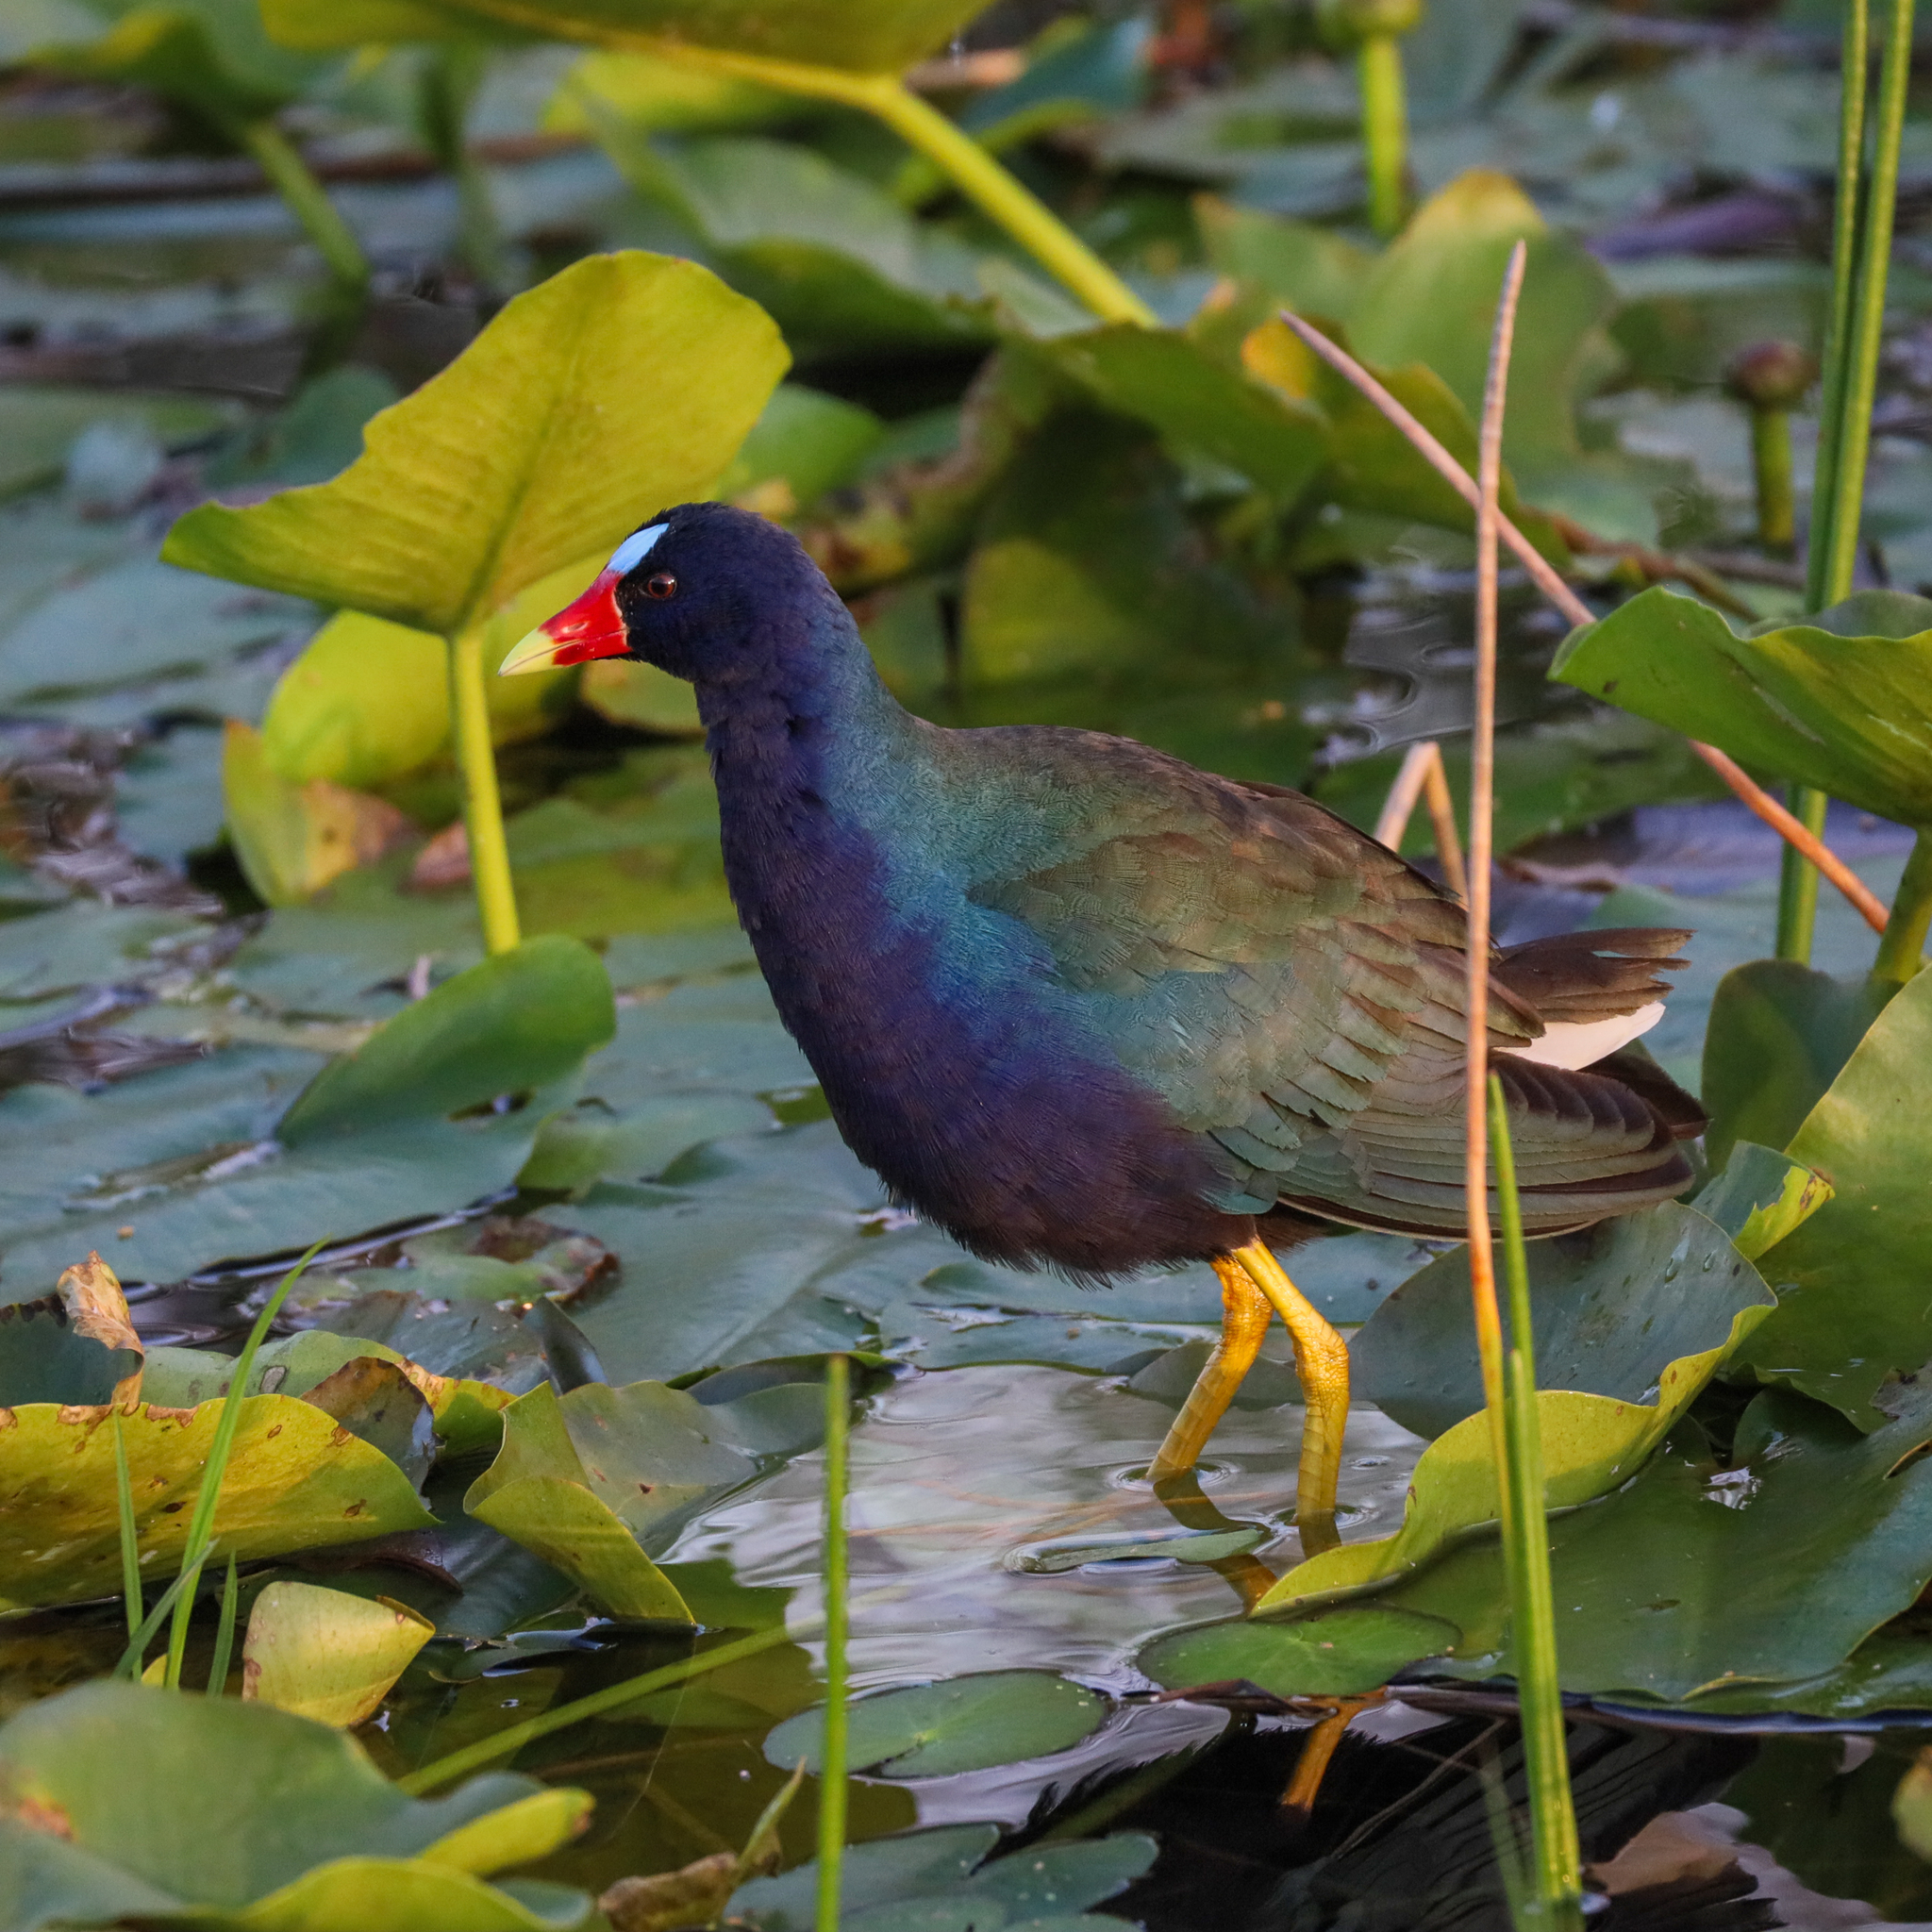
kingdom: Animalia
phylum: Chordata
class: Aves
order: Gruiformes
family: Rallidae
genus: Porphyrio
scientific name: Porphyrio martinica
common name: Purple gallinule
